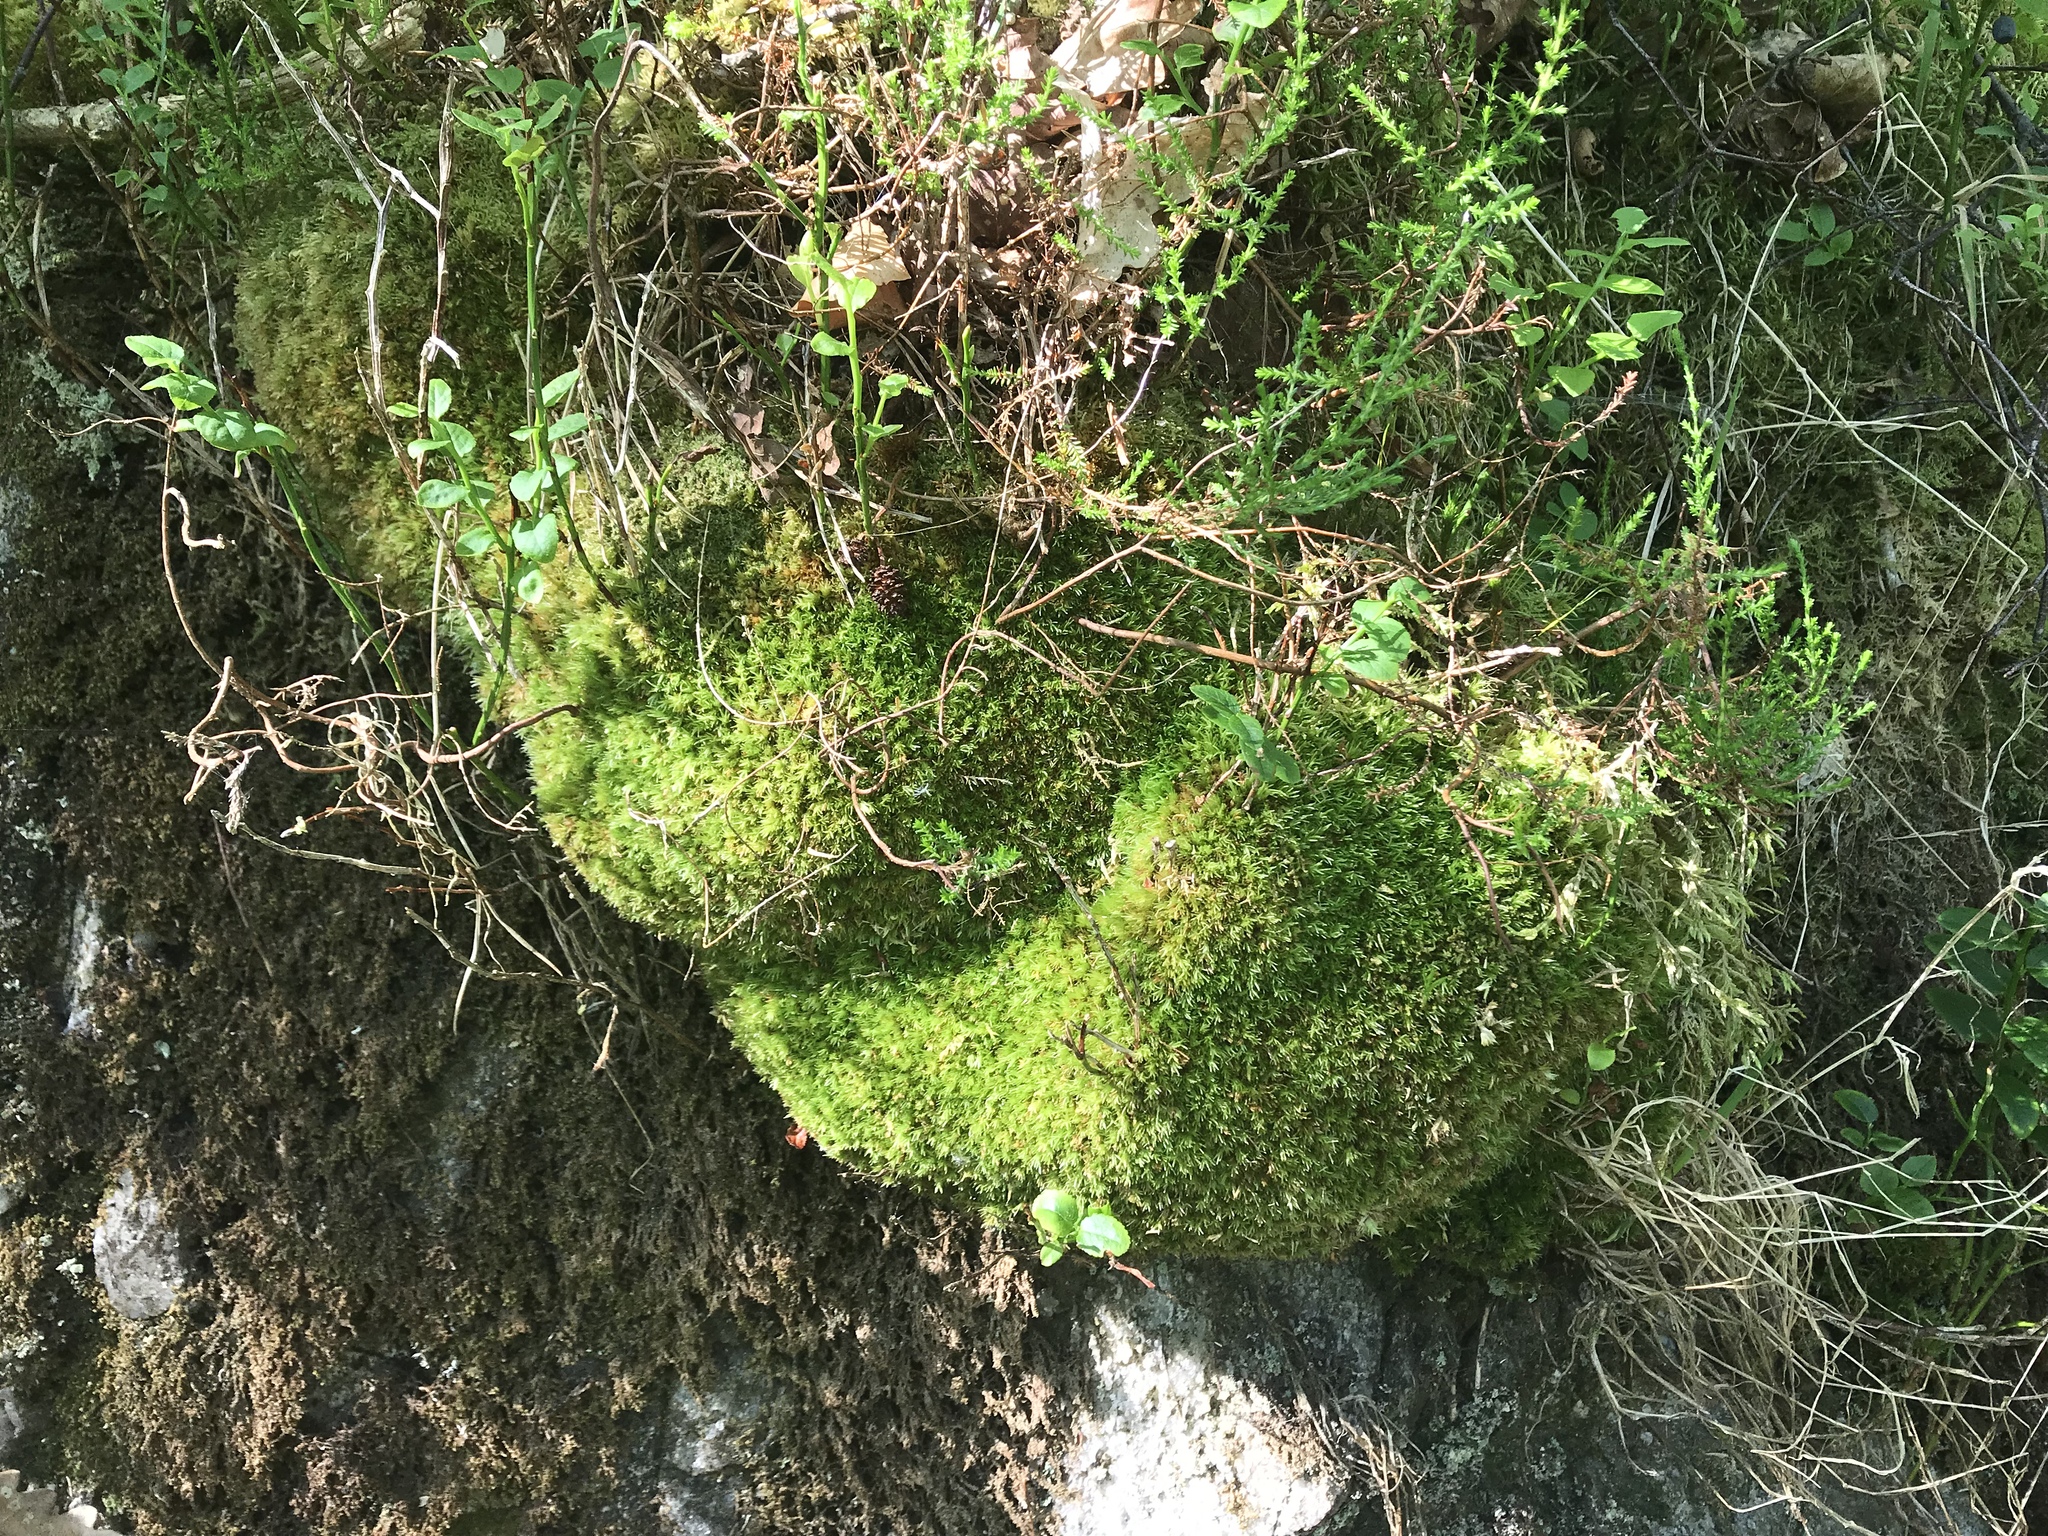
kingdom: Plantae
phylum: Bryophyta
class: Bryopsida
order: Pottiales
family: Pottiaceae
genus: Bryoerythrophyllum
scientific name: Bryoerythrophyllum recurvirostrum
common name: Red beard moss
